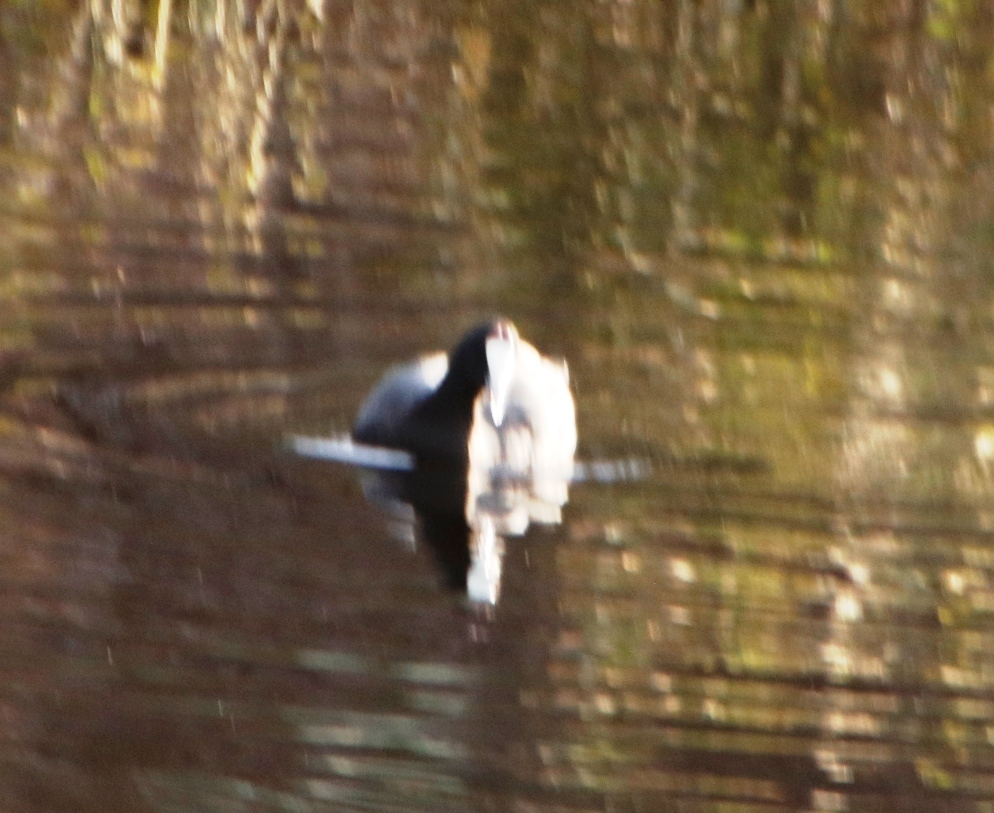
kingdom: Animalia
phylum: Chordata
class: Aves
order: Gruiformes
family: Rallidae
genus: Fulica
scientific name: Fulica cristata
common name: Red-knobbed coot
